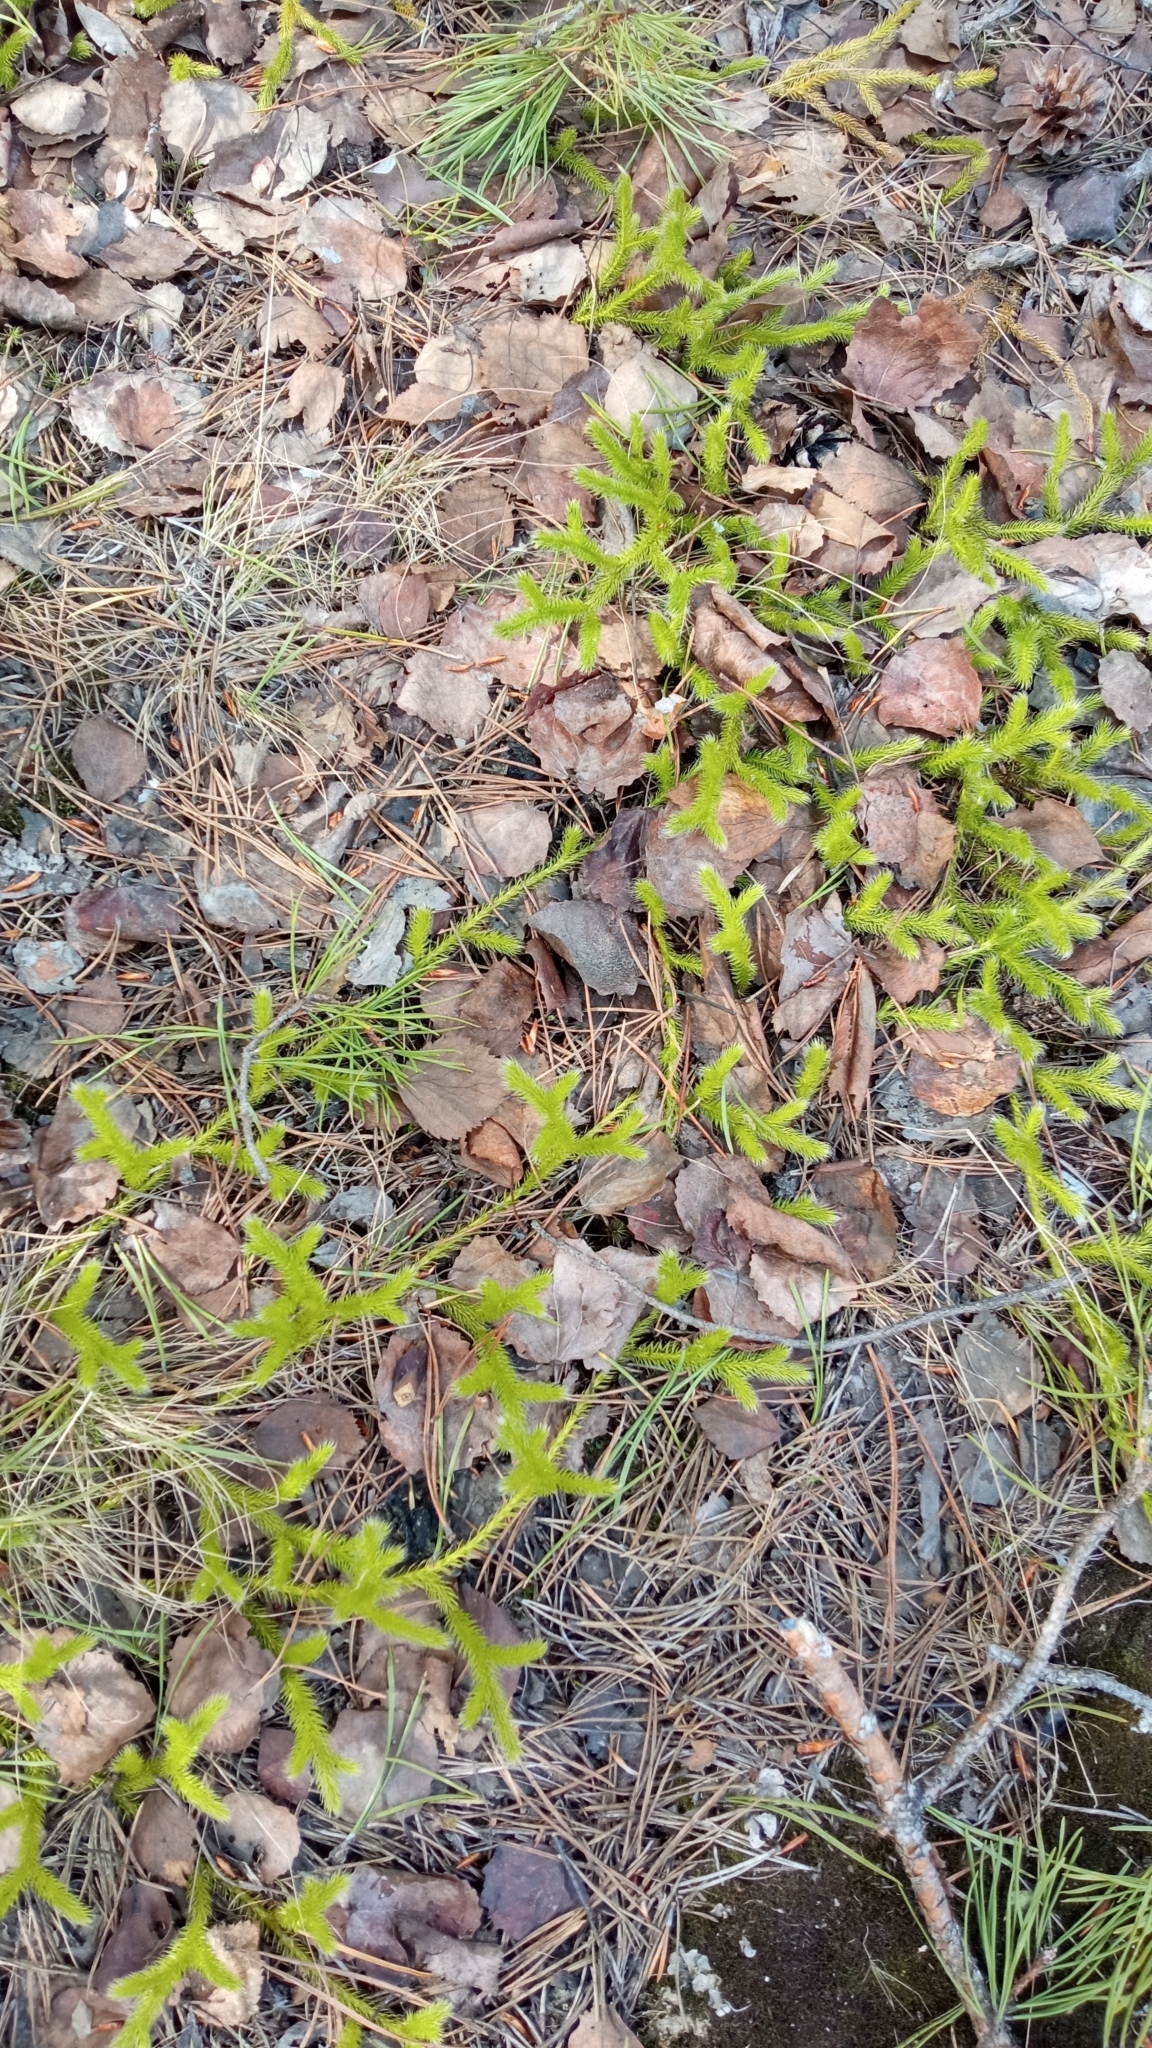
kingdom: Plantae
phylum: Tracheophyta
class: Lycopodiopsida
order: Lycopodiales
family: Lycopodiaceae
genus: Lycopodium
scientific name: Lycopodium clavatum
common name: Stag's-horn clubmoss
